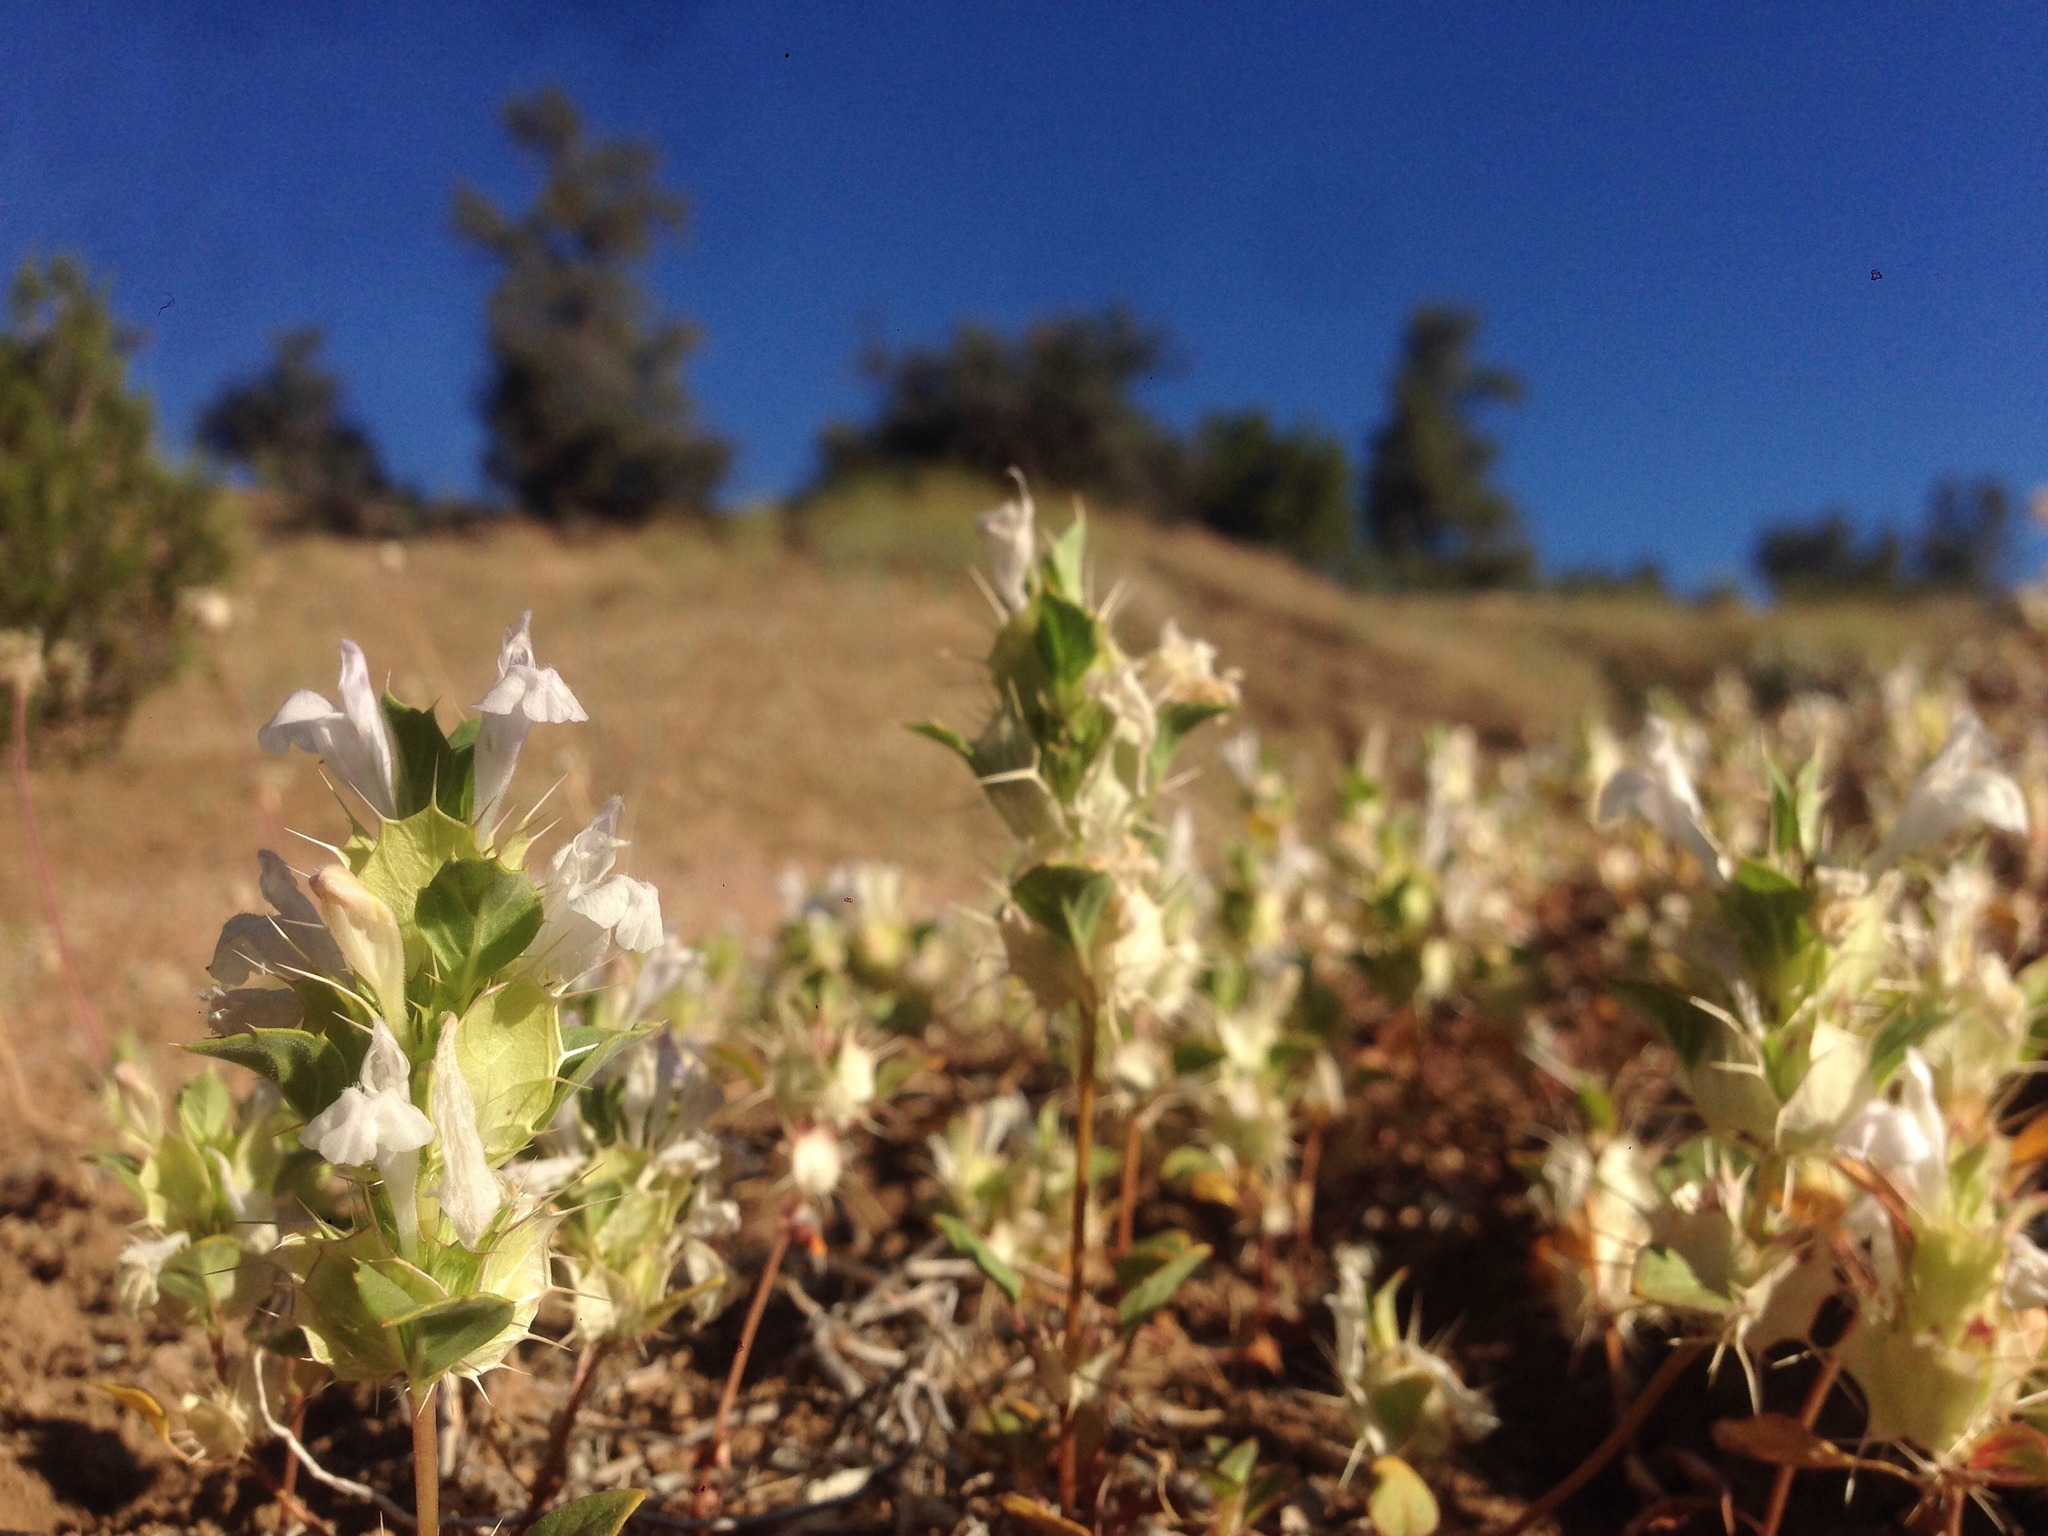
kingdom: Plantae
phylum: Tracheophyta
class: Magnoliopsida
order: Lamiales
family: Lamiaceae
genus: Acanthomintha
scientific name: Acanthomintha obovata
